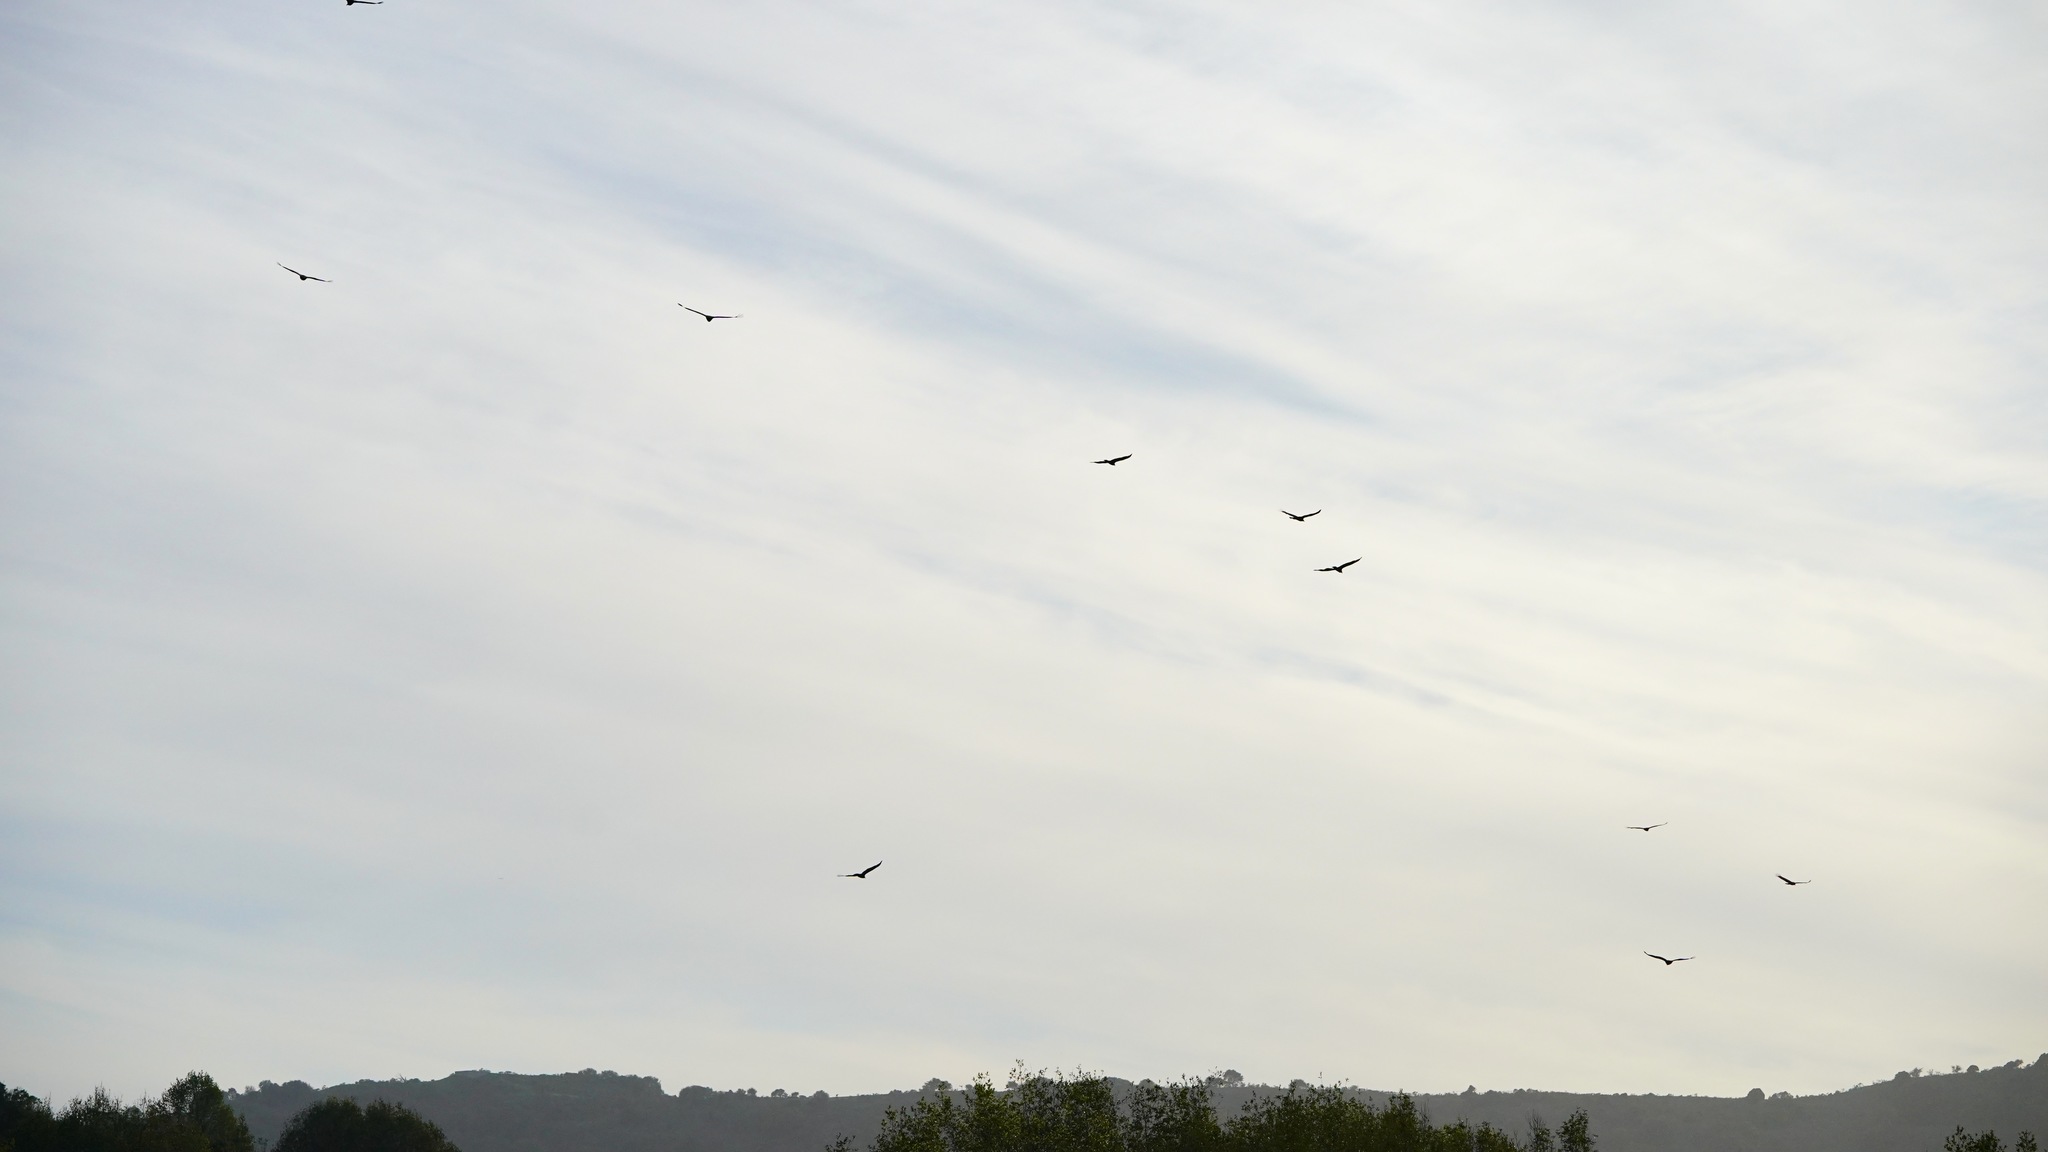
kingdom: Animalia
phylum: Chordata
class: Aves
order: Accipitriformes
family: Cathartidae
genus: Cathartes
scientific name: Cathartes aura
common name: Turkey vulture
